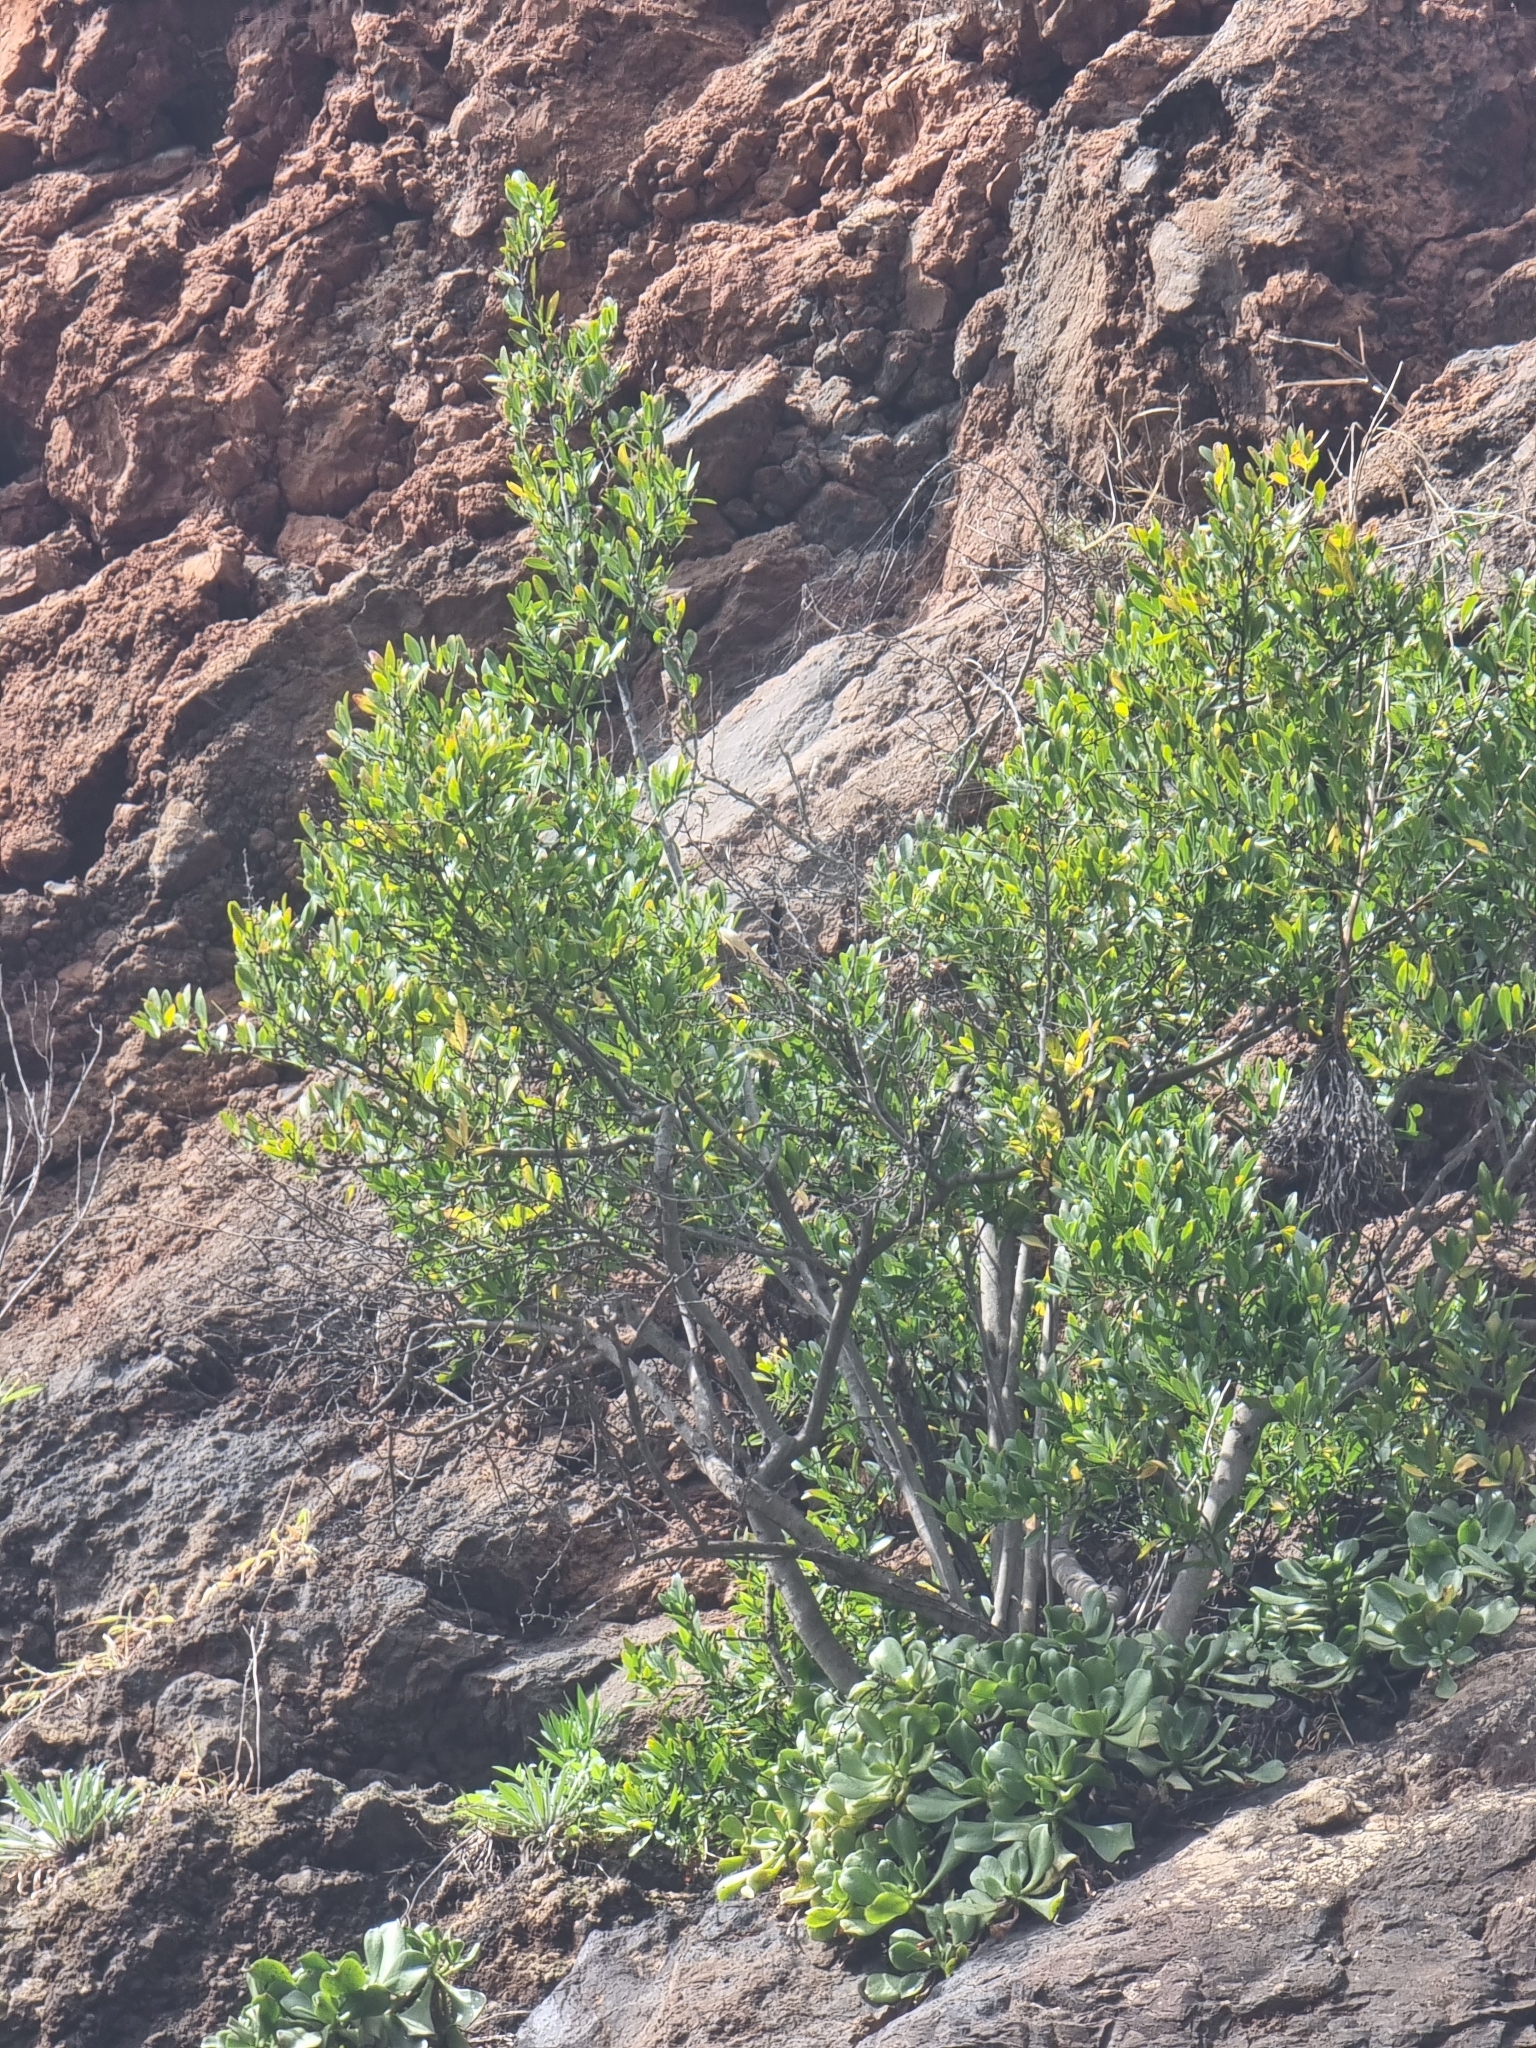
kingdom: Plantae
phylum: Tracheophyta
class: Magnoliopsida
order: Celastrales
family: Celastraceae
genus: Gymnosporia
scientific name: Gymnosporia dryandri
